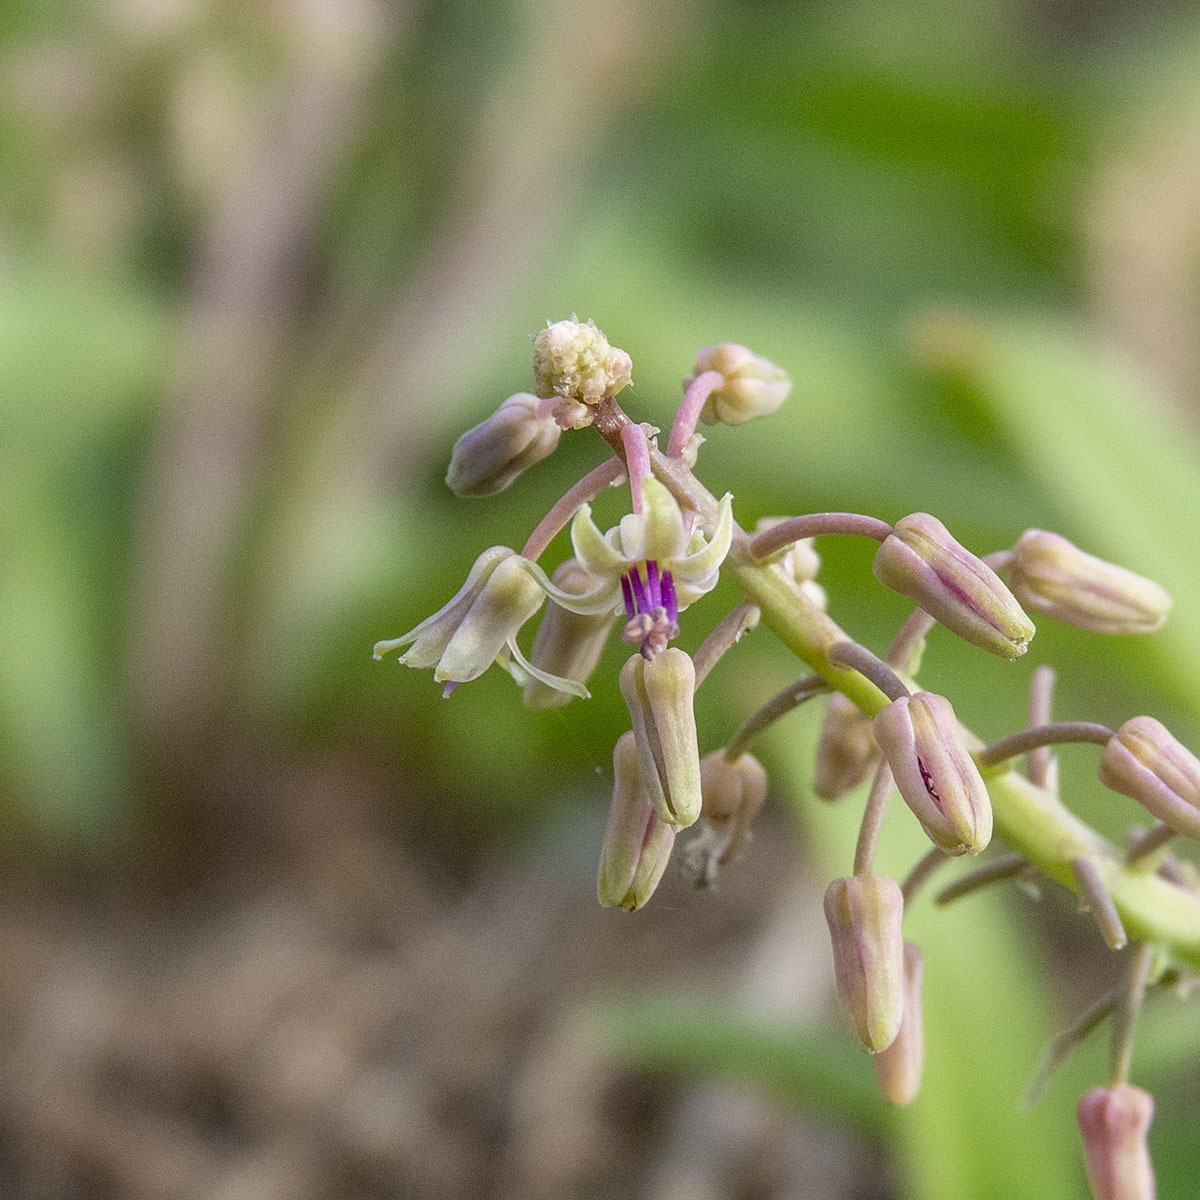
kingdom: Plantae
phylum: Tracheophyta
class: Liliopsida
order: Asparagales
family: Asparagaceae
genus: Ledebouria
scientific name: Ledebouria revoluta
